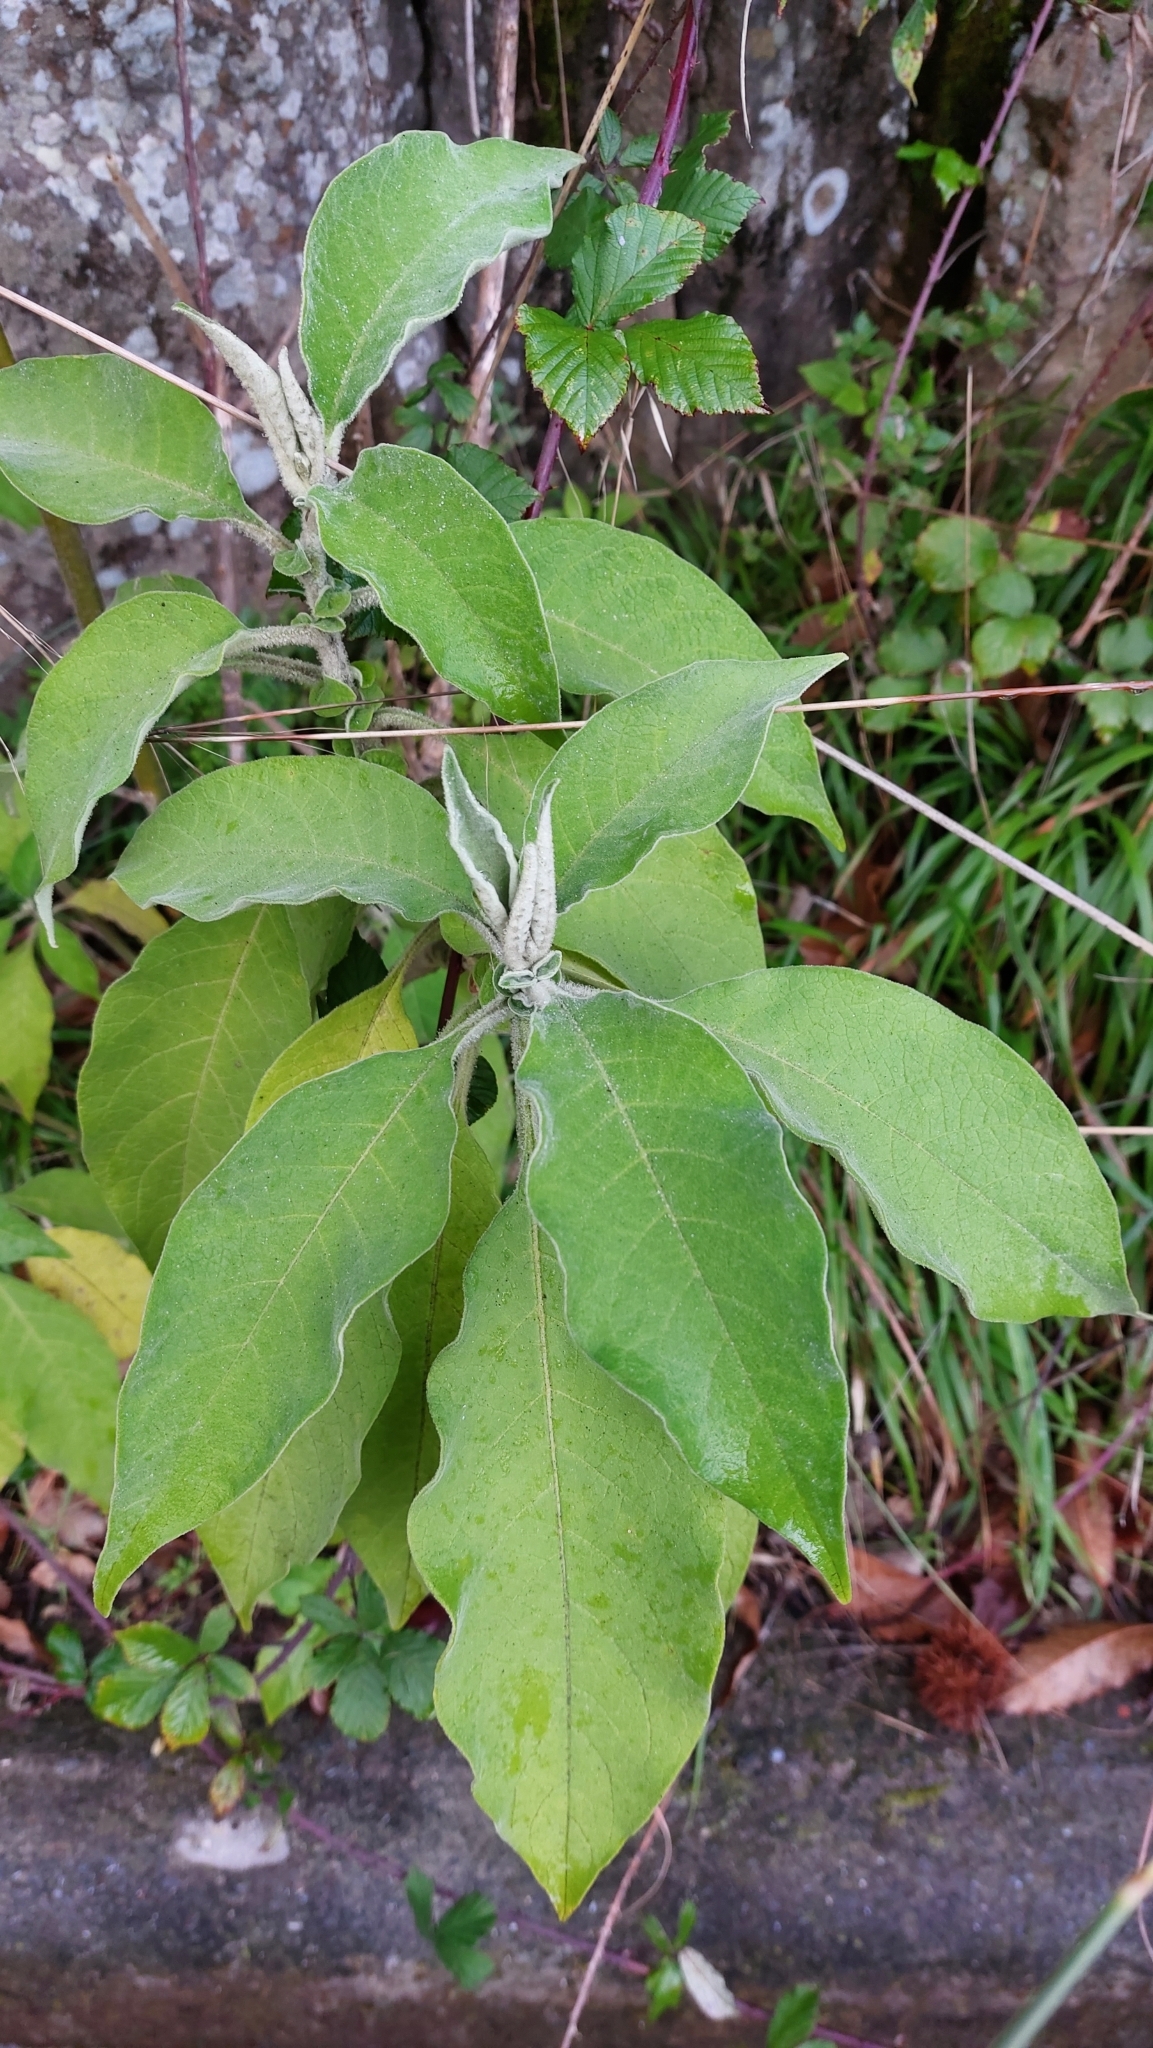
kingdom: Plantae
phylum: Tracheophyta
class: Magnoliopsida
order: Solanales
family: Solanaceae
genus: Solanum
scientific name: Solanum mauritianum
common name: Earleaf nightshade
